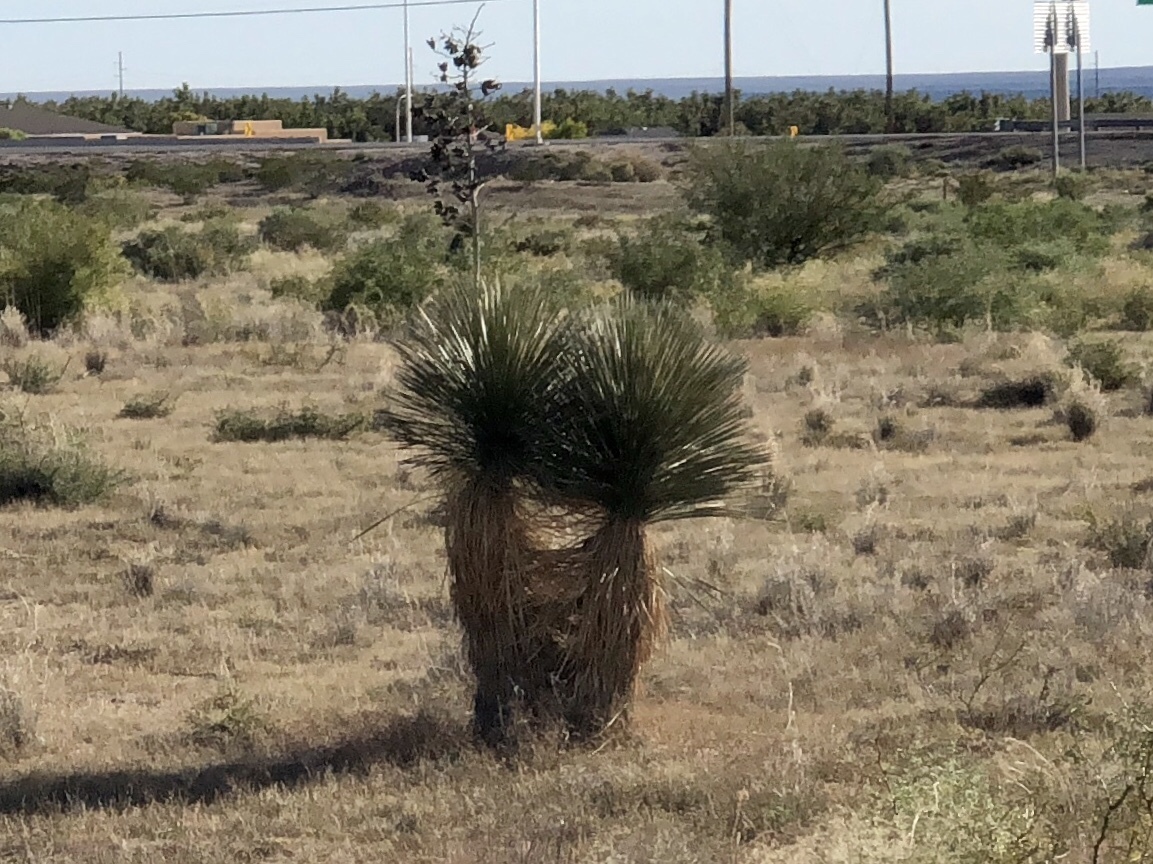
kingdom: Plantae
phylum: Tracheophyta
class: Liliopsida
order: Asparagales
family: Asparagaceae
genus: Yucca
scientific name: Yucca elata
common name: Palmella
